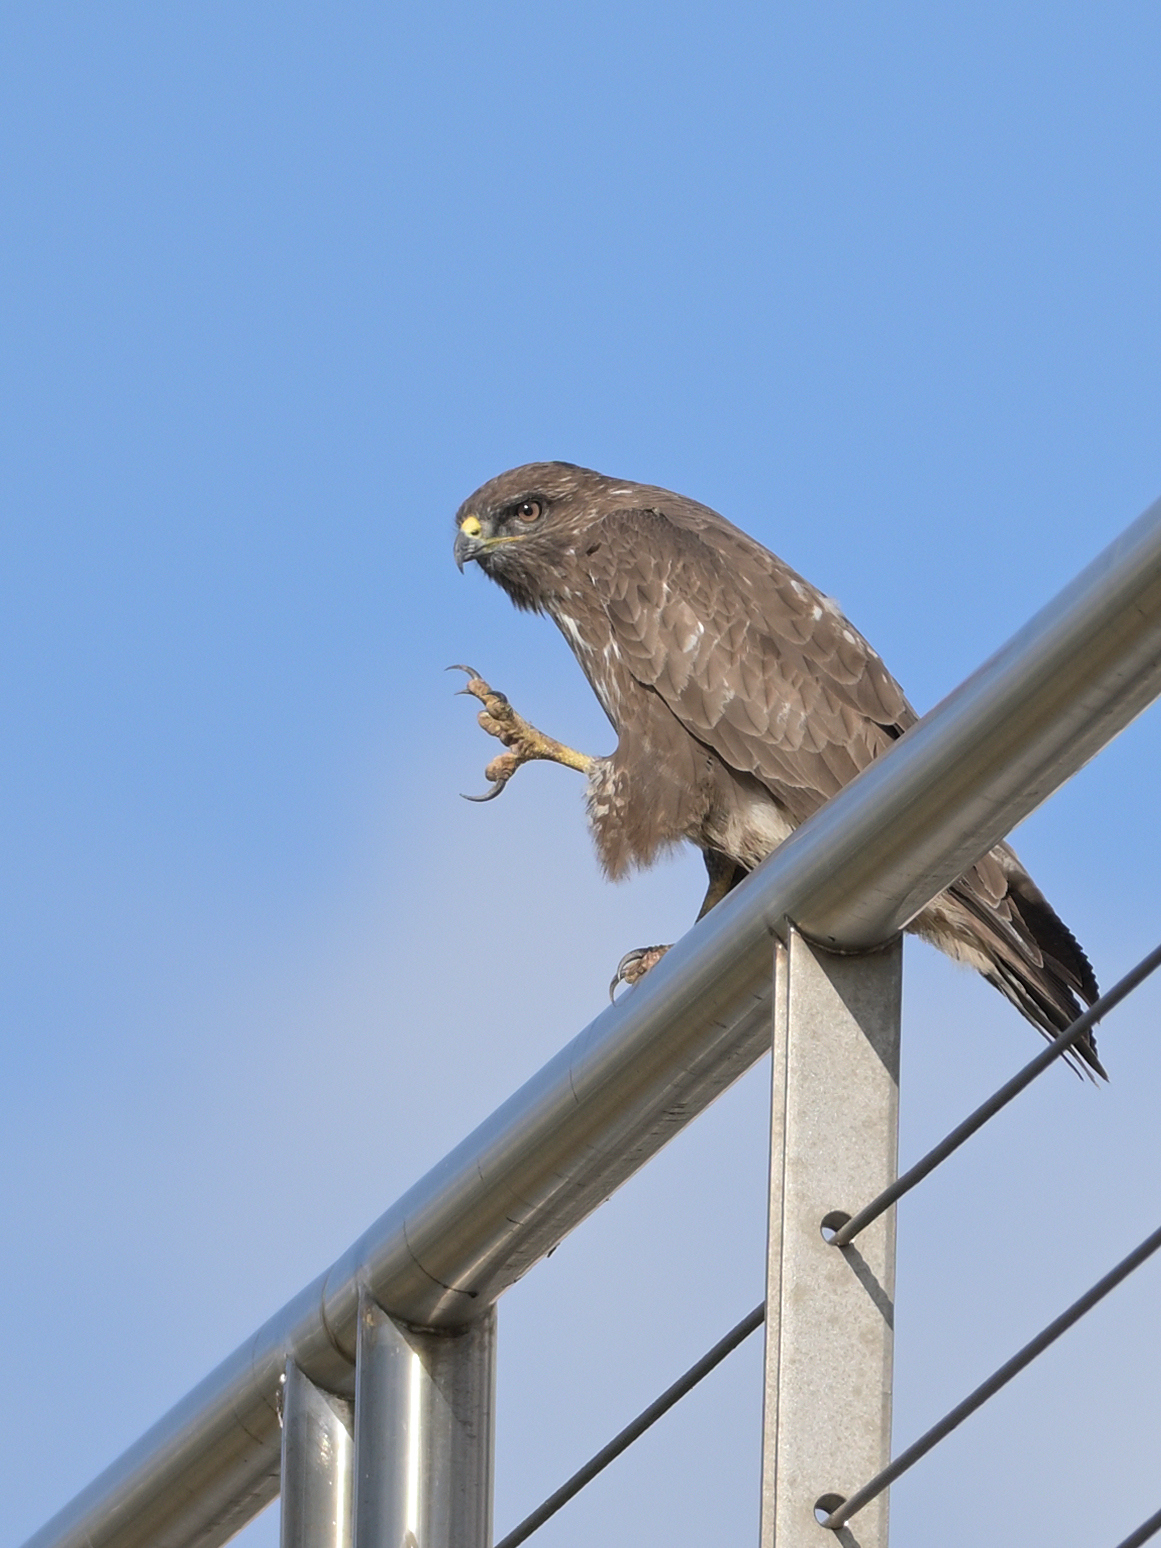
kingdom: Animalia
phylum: Chordata
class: Aves
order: Accipitriformes
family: Accipitridae
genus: Buteo
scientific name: Buteo buteo
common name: Common buzzard
